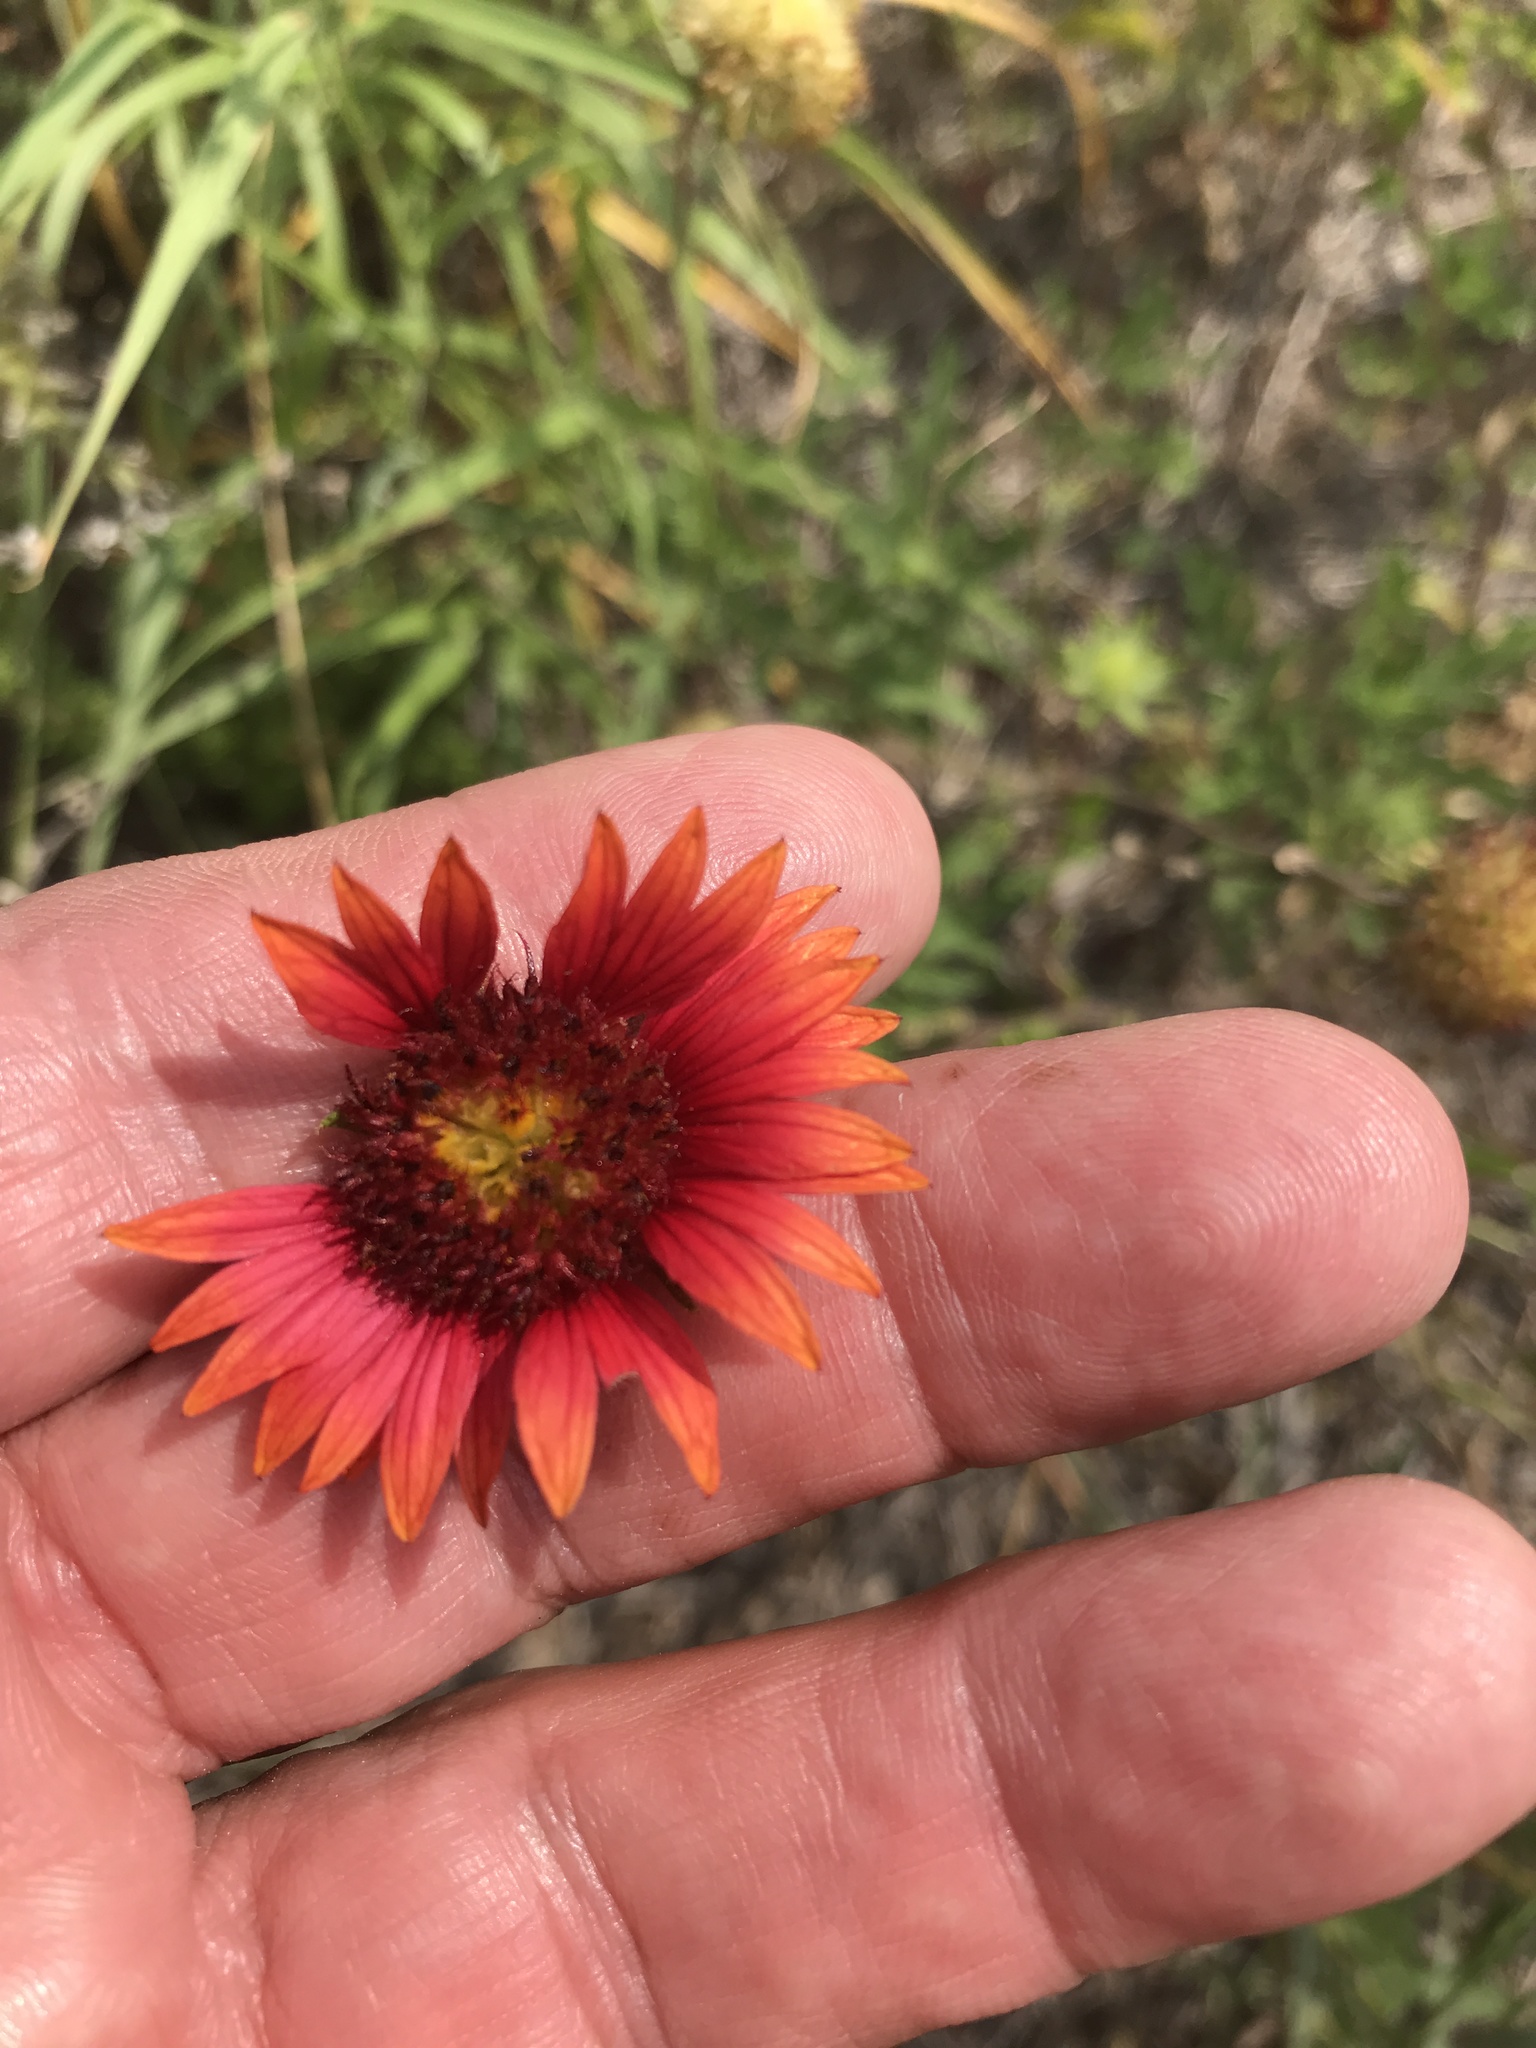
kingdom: Plantae
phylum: Tracheophyta
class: Magnoliopsida
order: Asterales
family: Asteraceae
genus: Gaillardia
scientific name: Gaillardia pulchella
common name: Firewheel
